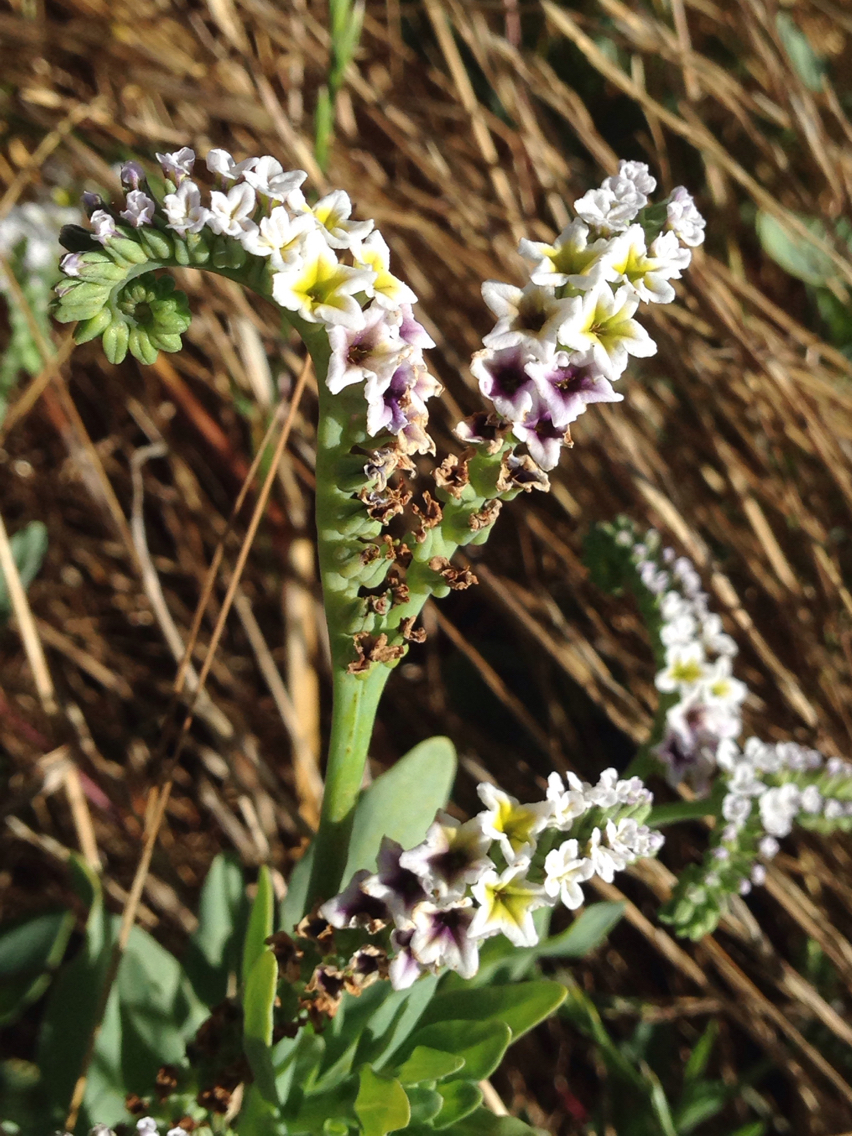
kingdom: Plantae
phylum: Tracheophyta
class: Magnoliopsida
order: Boraginales
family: Heliotropiaceae
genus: Heliotropium
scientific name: Heliotropium curassavicum
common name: Seaside heliotrope
